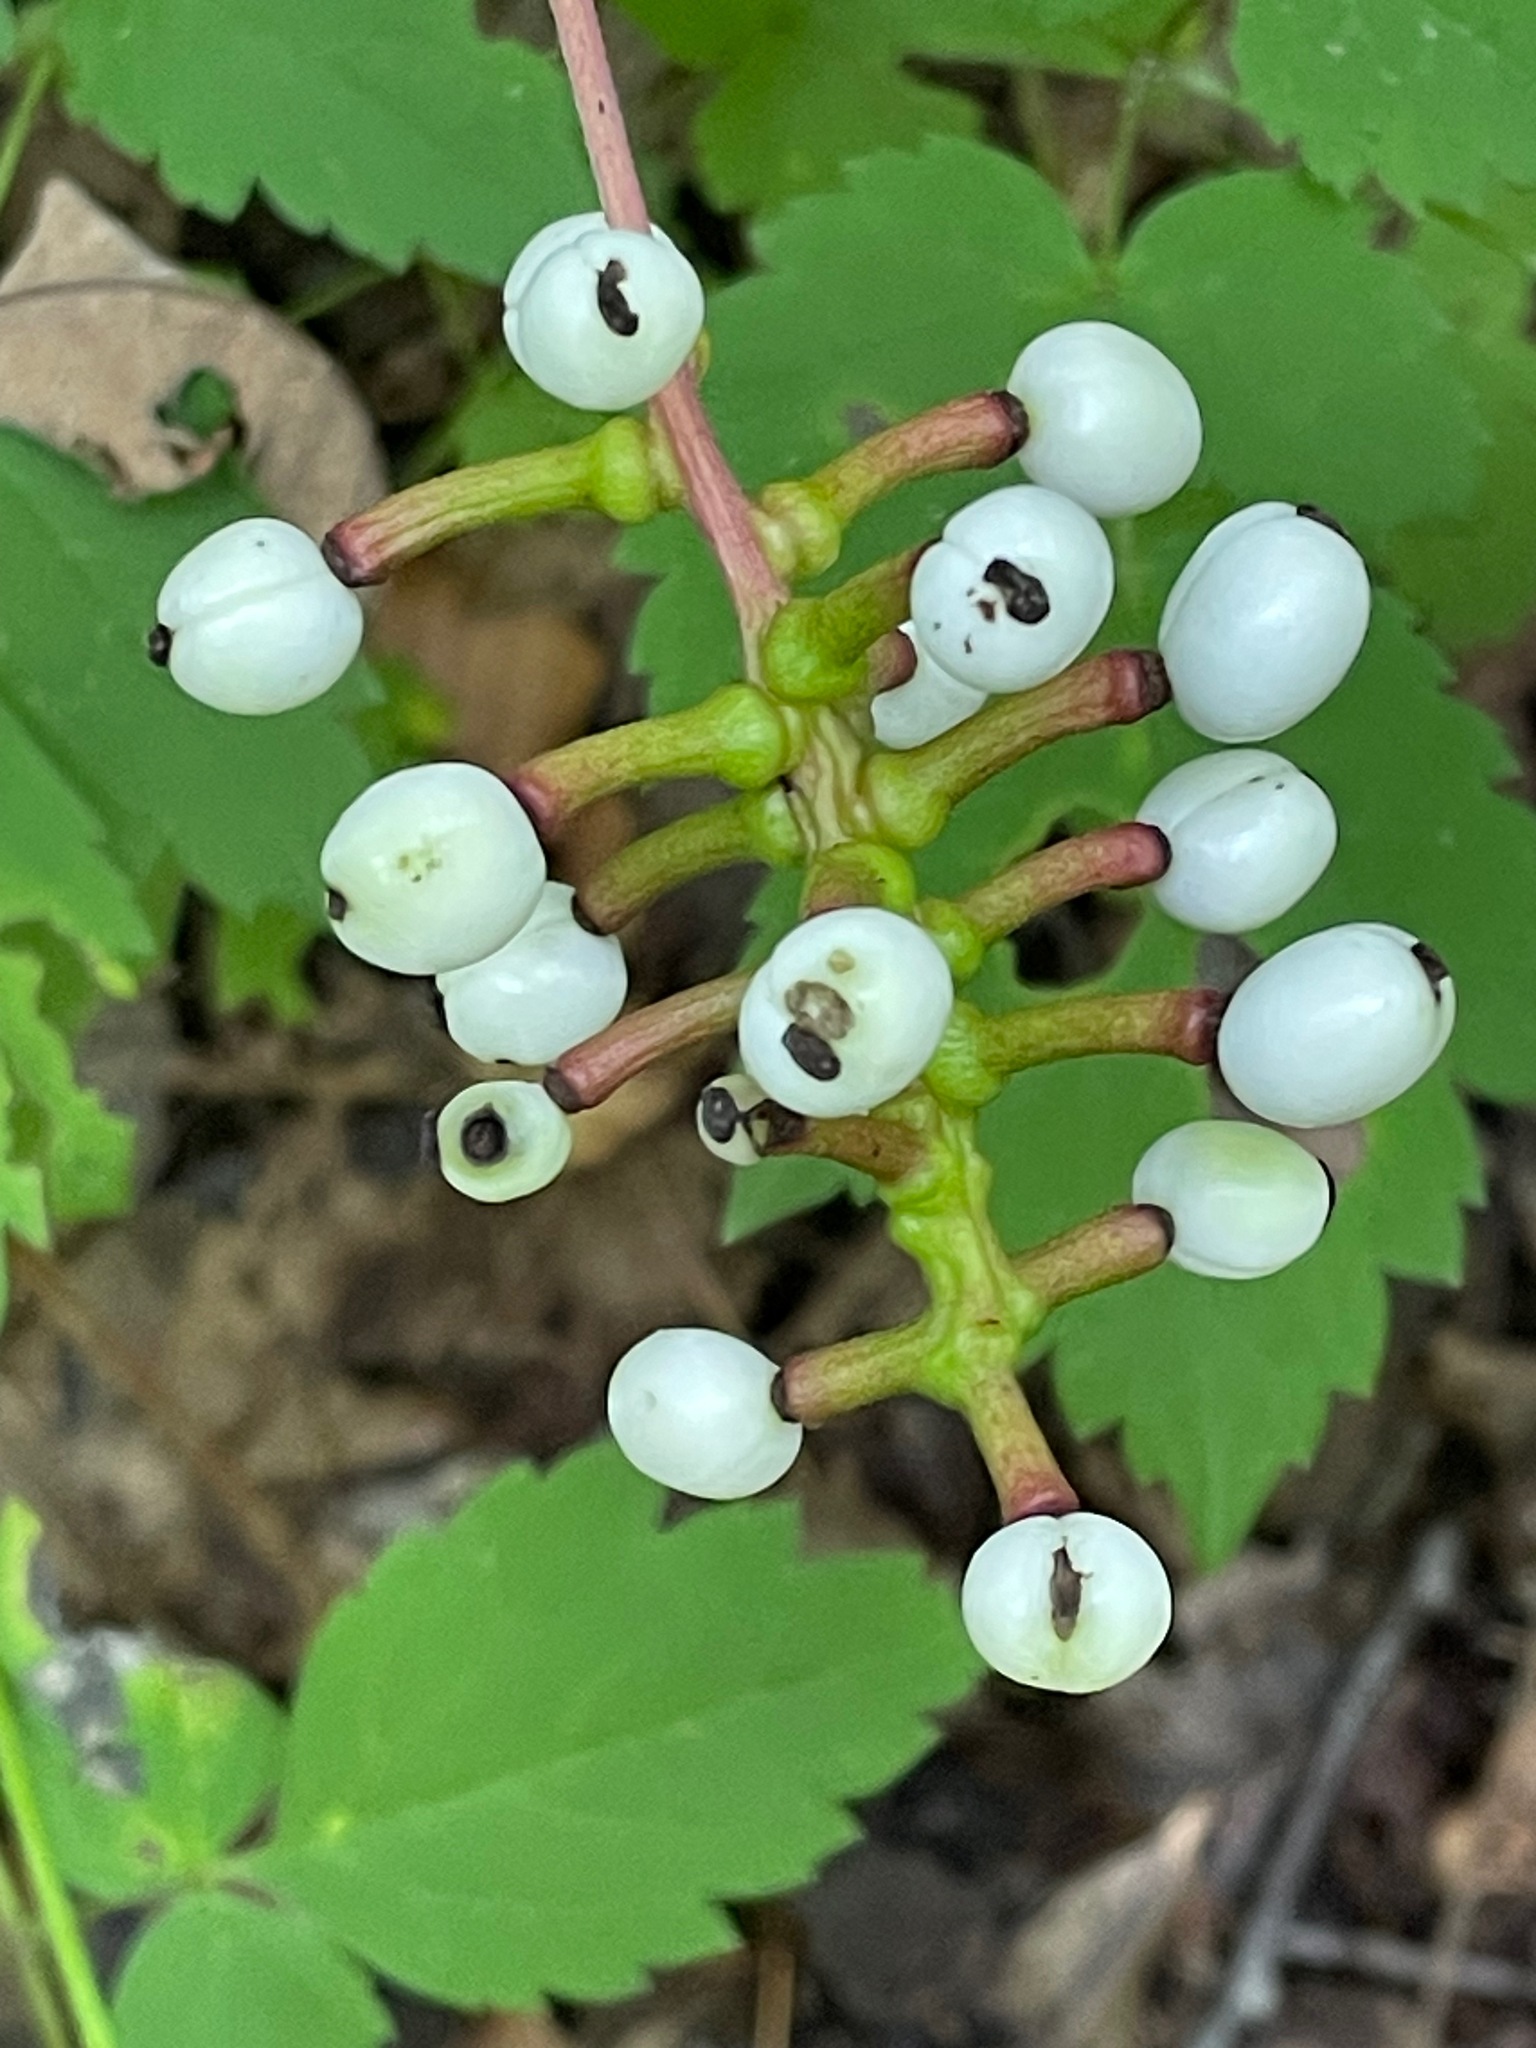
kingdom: Plantae
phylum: Tracheophyta
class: Magnoliopsida
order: Ranunculales
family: Ranunculaceae
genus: Actaea
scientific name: Actaea pachypoda
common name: Doll's-eyes
